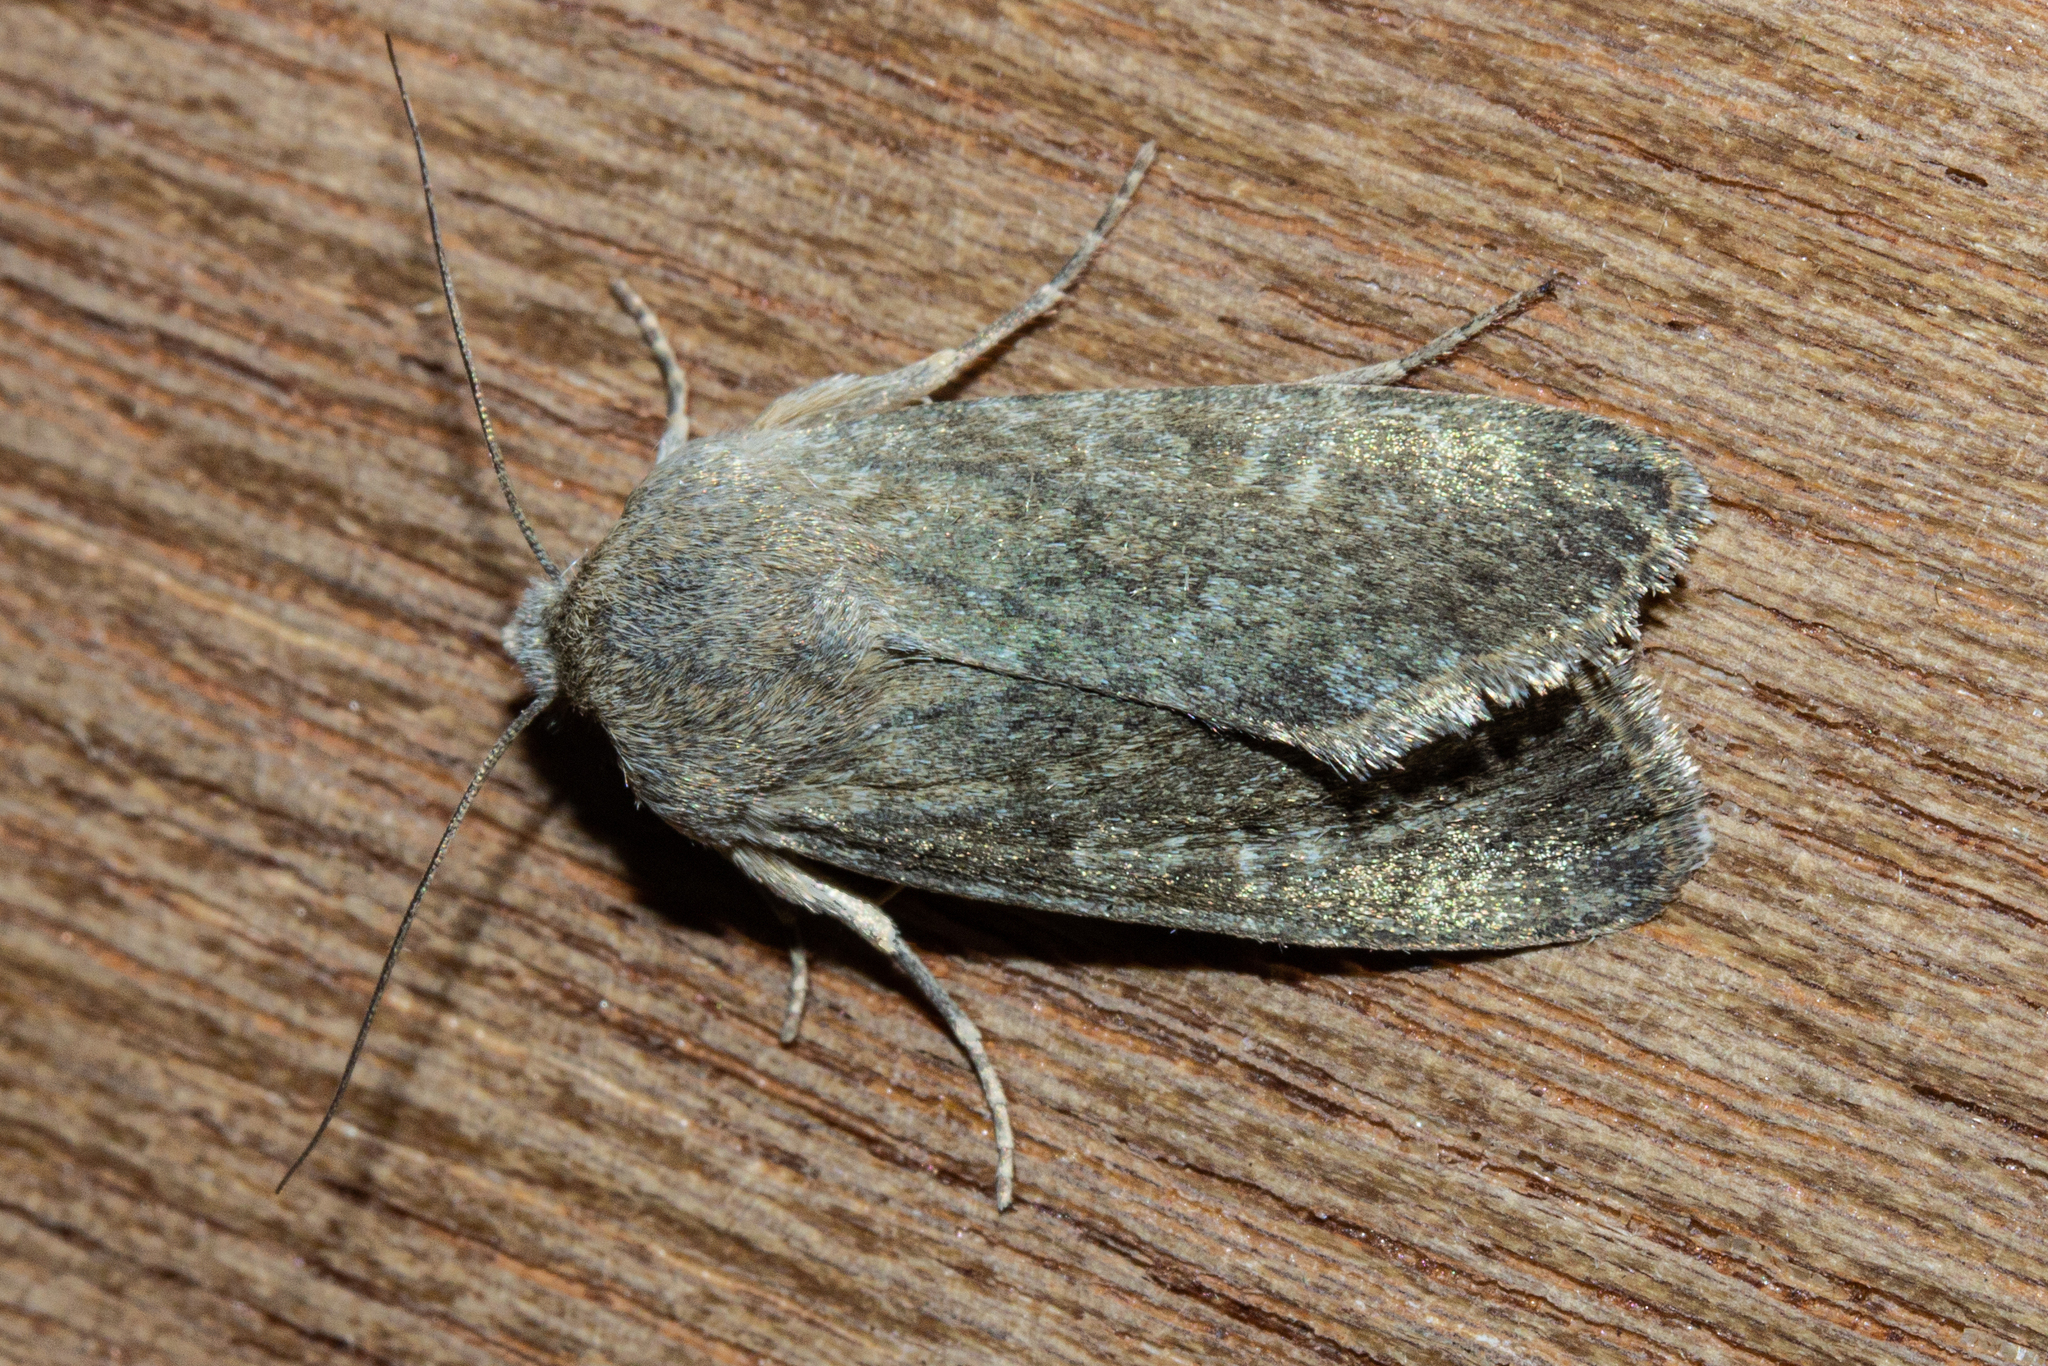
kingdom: Animalia
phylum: Arthropoda
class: Insecta
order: Lepidoptera
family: Noctuidae
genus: Physetica
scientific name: Physetica caerulea
